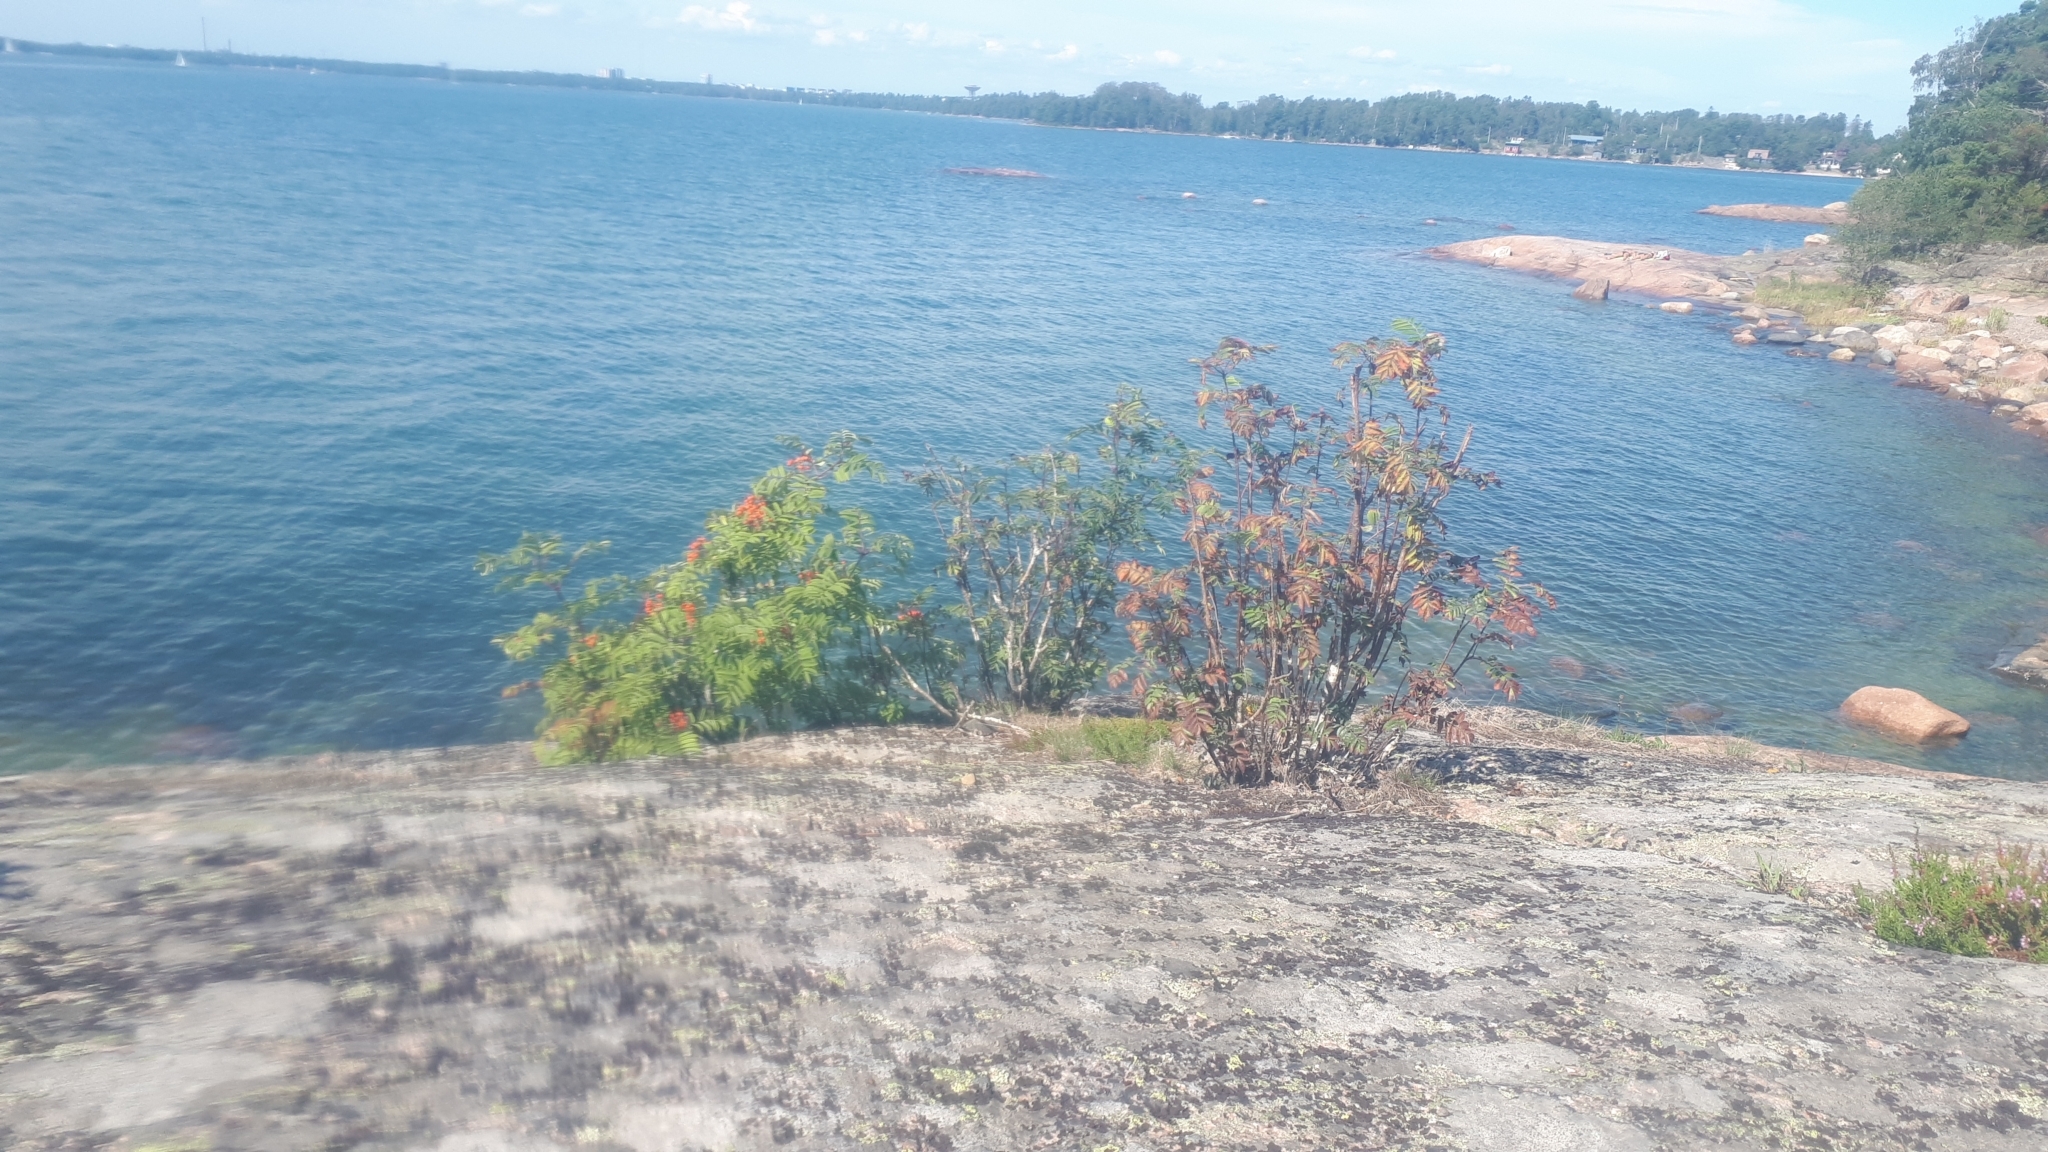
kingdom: Plantae
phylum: Tracheophyta
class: Magnoliopsida
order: Rosales
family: Rosaceae
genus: Sorbus
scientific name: Sorbus aucuparia
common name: Rowan
